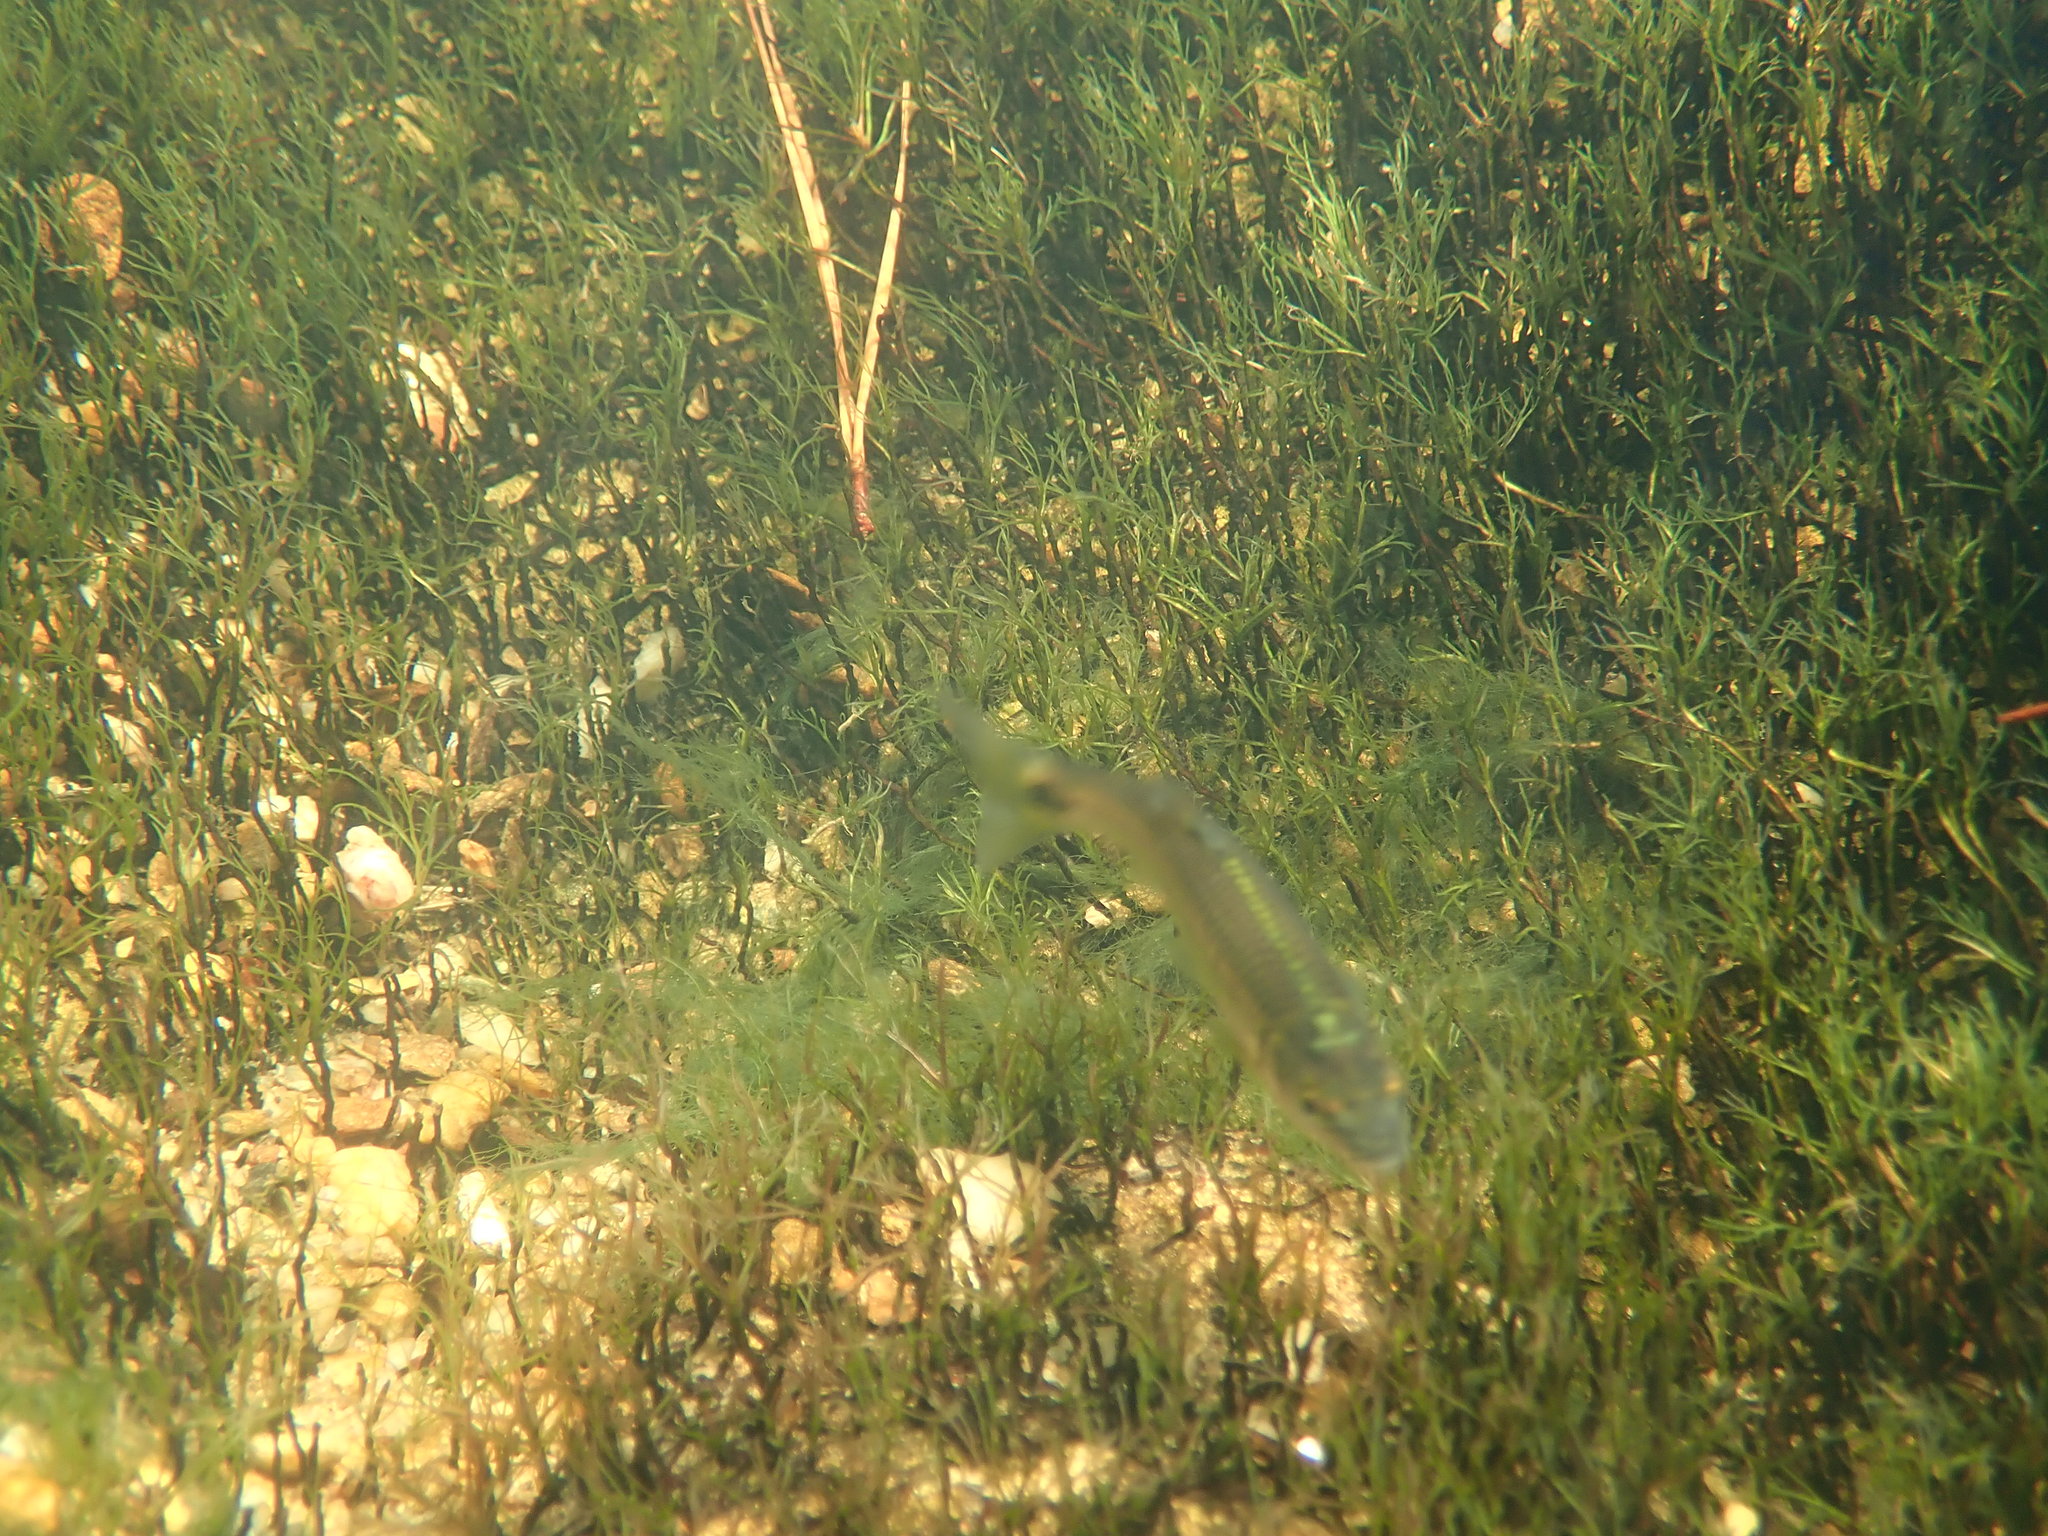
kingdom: Animalia
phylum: Chordata
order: Cypriniformes
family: Cyprinidae
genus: Cyprinella
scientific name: Cyprinella callistia
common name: Alabama shiner
